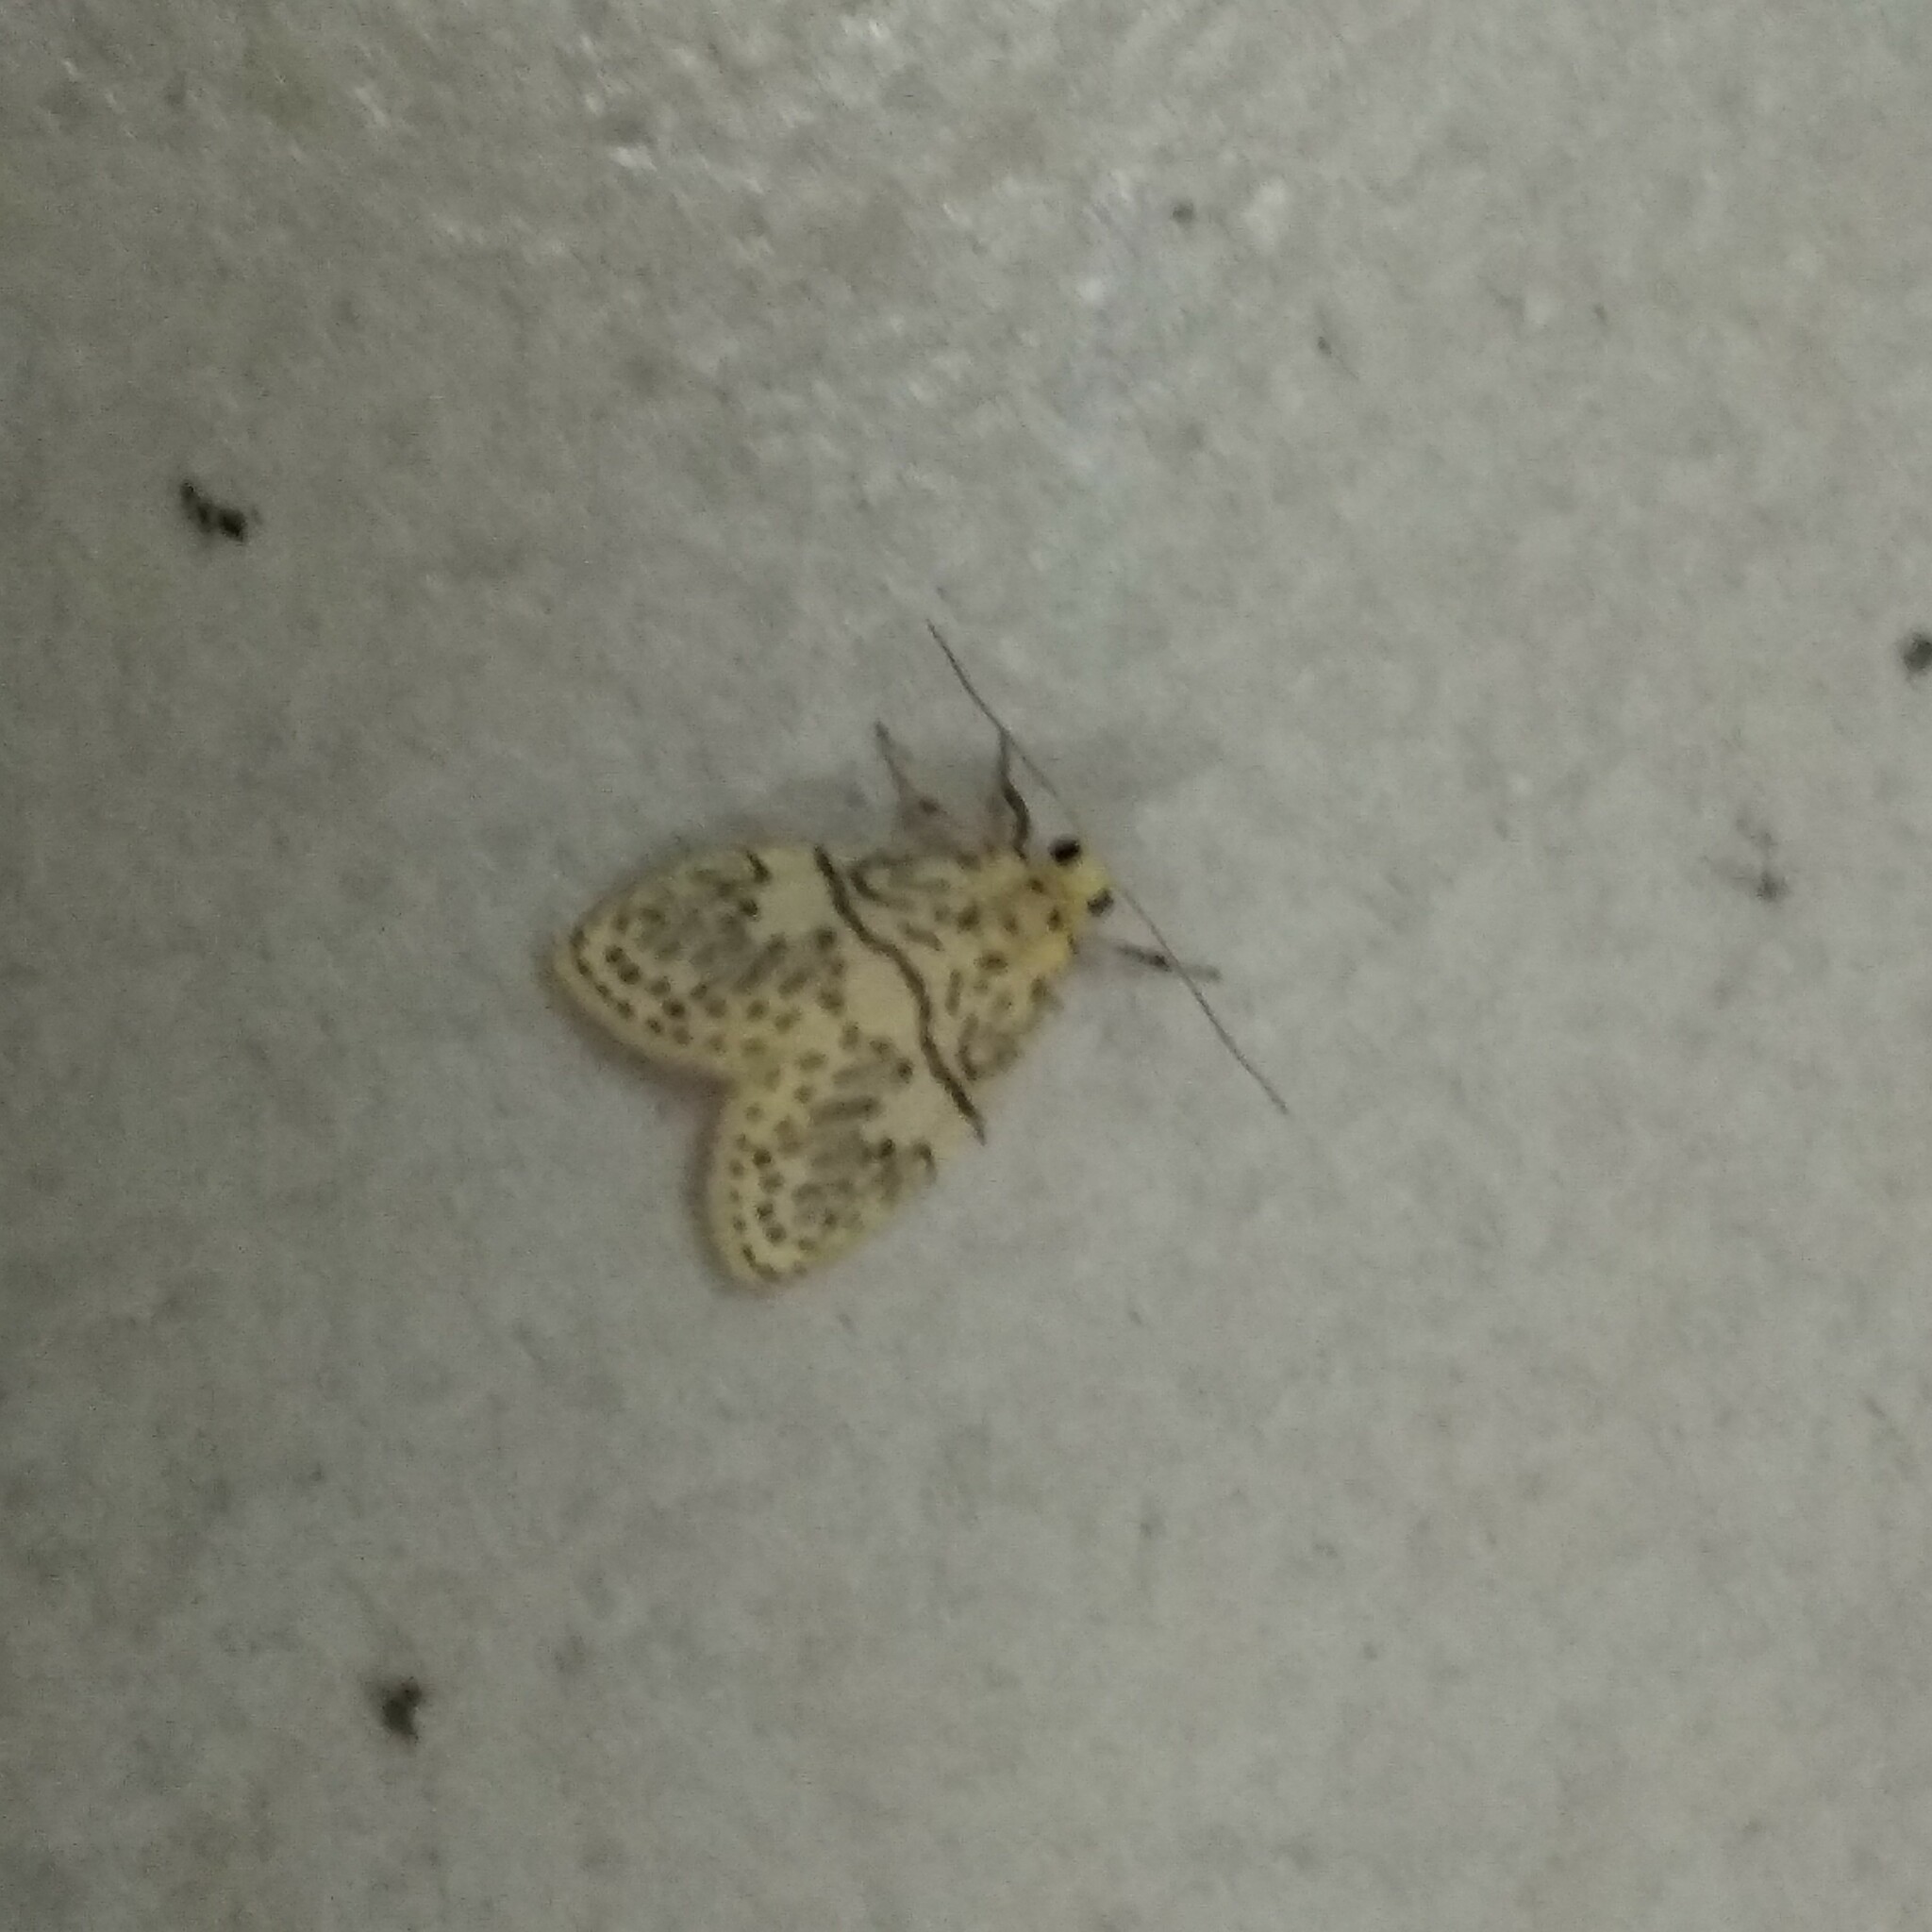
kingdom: Animalia
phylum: Arthropoda
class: Insecta
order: Lepidoptera
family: Erebidae
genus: Miltochrista
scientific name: Miltochrista undulosa
